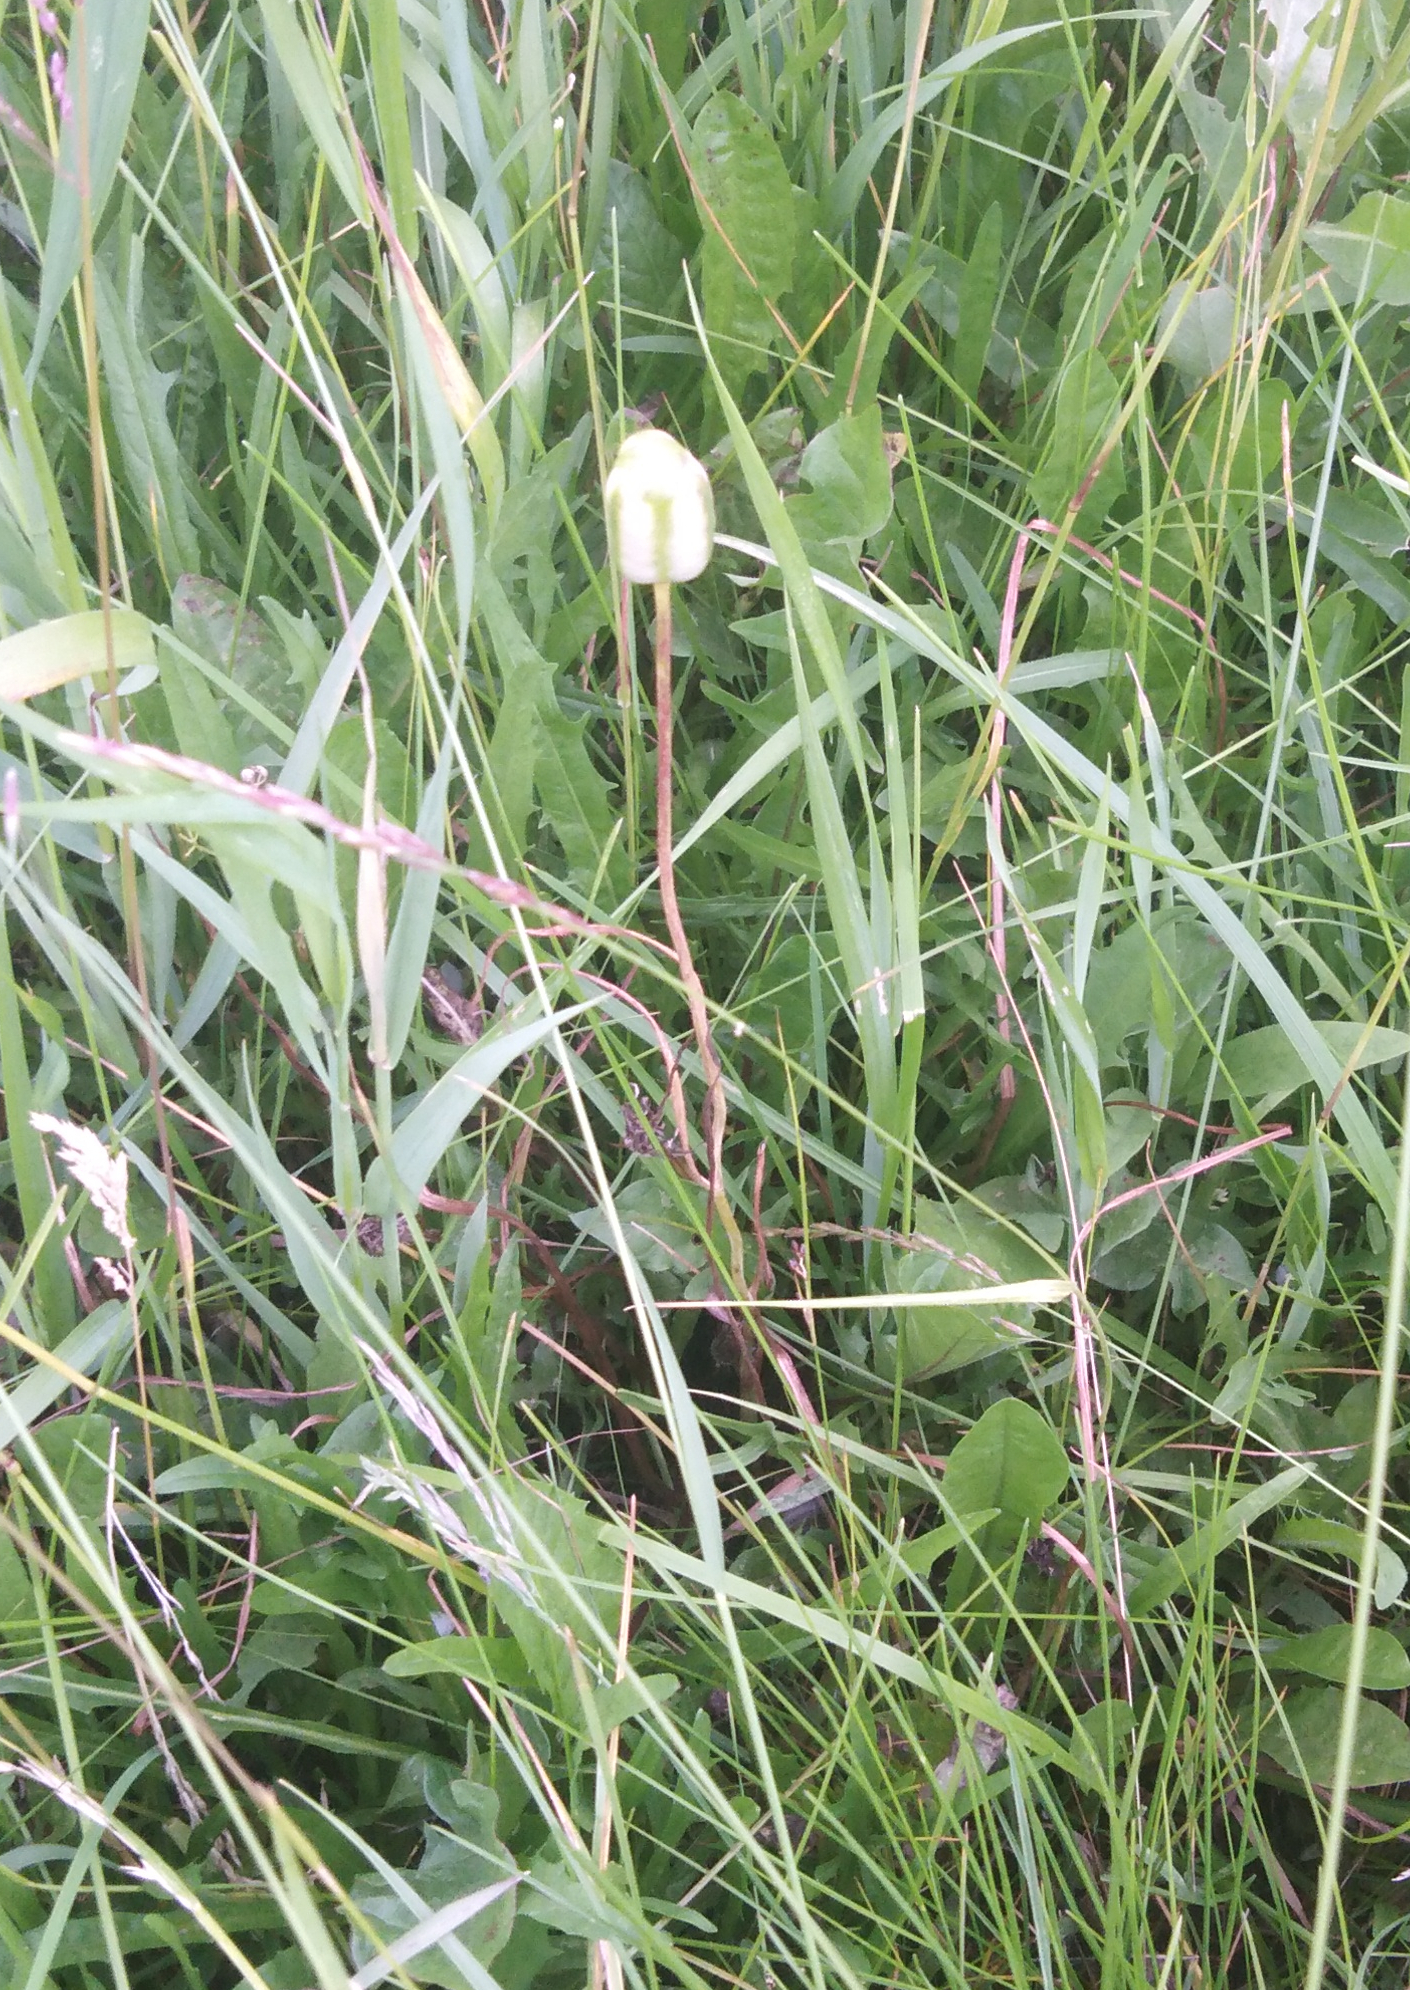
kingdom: Plantae
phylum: Tracheophyta
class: Liliopsida
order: Liliales
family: Liliaceae
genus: Fritillaria
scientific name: Fritillaria meleagroides
